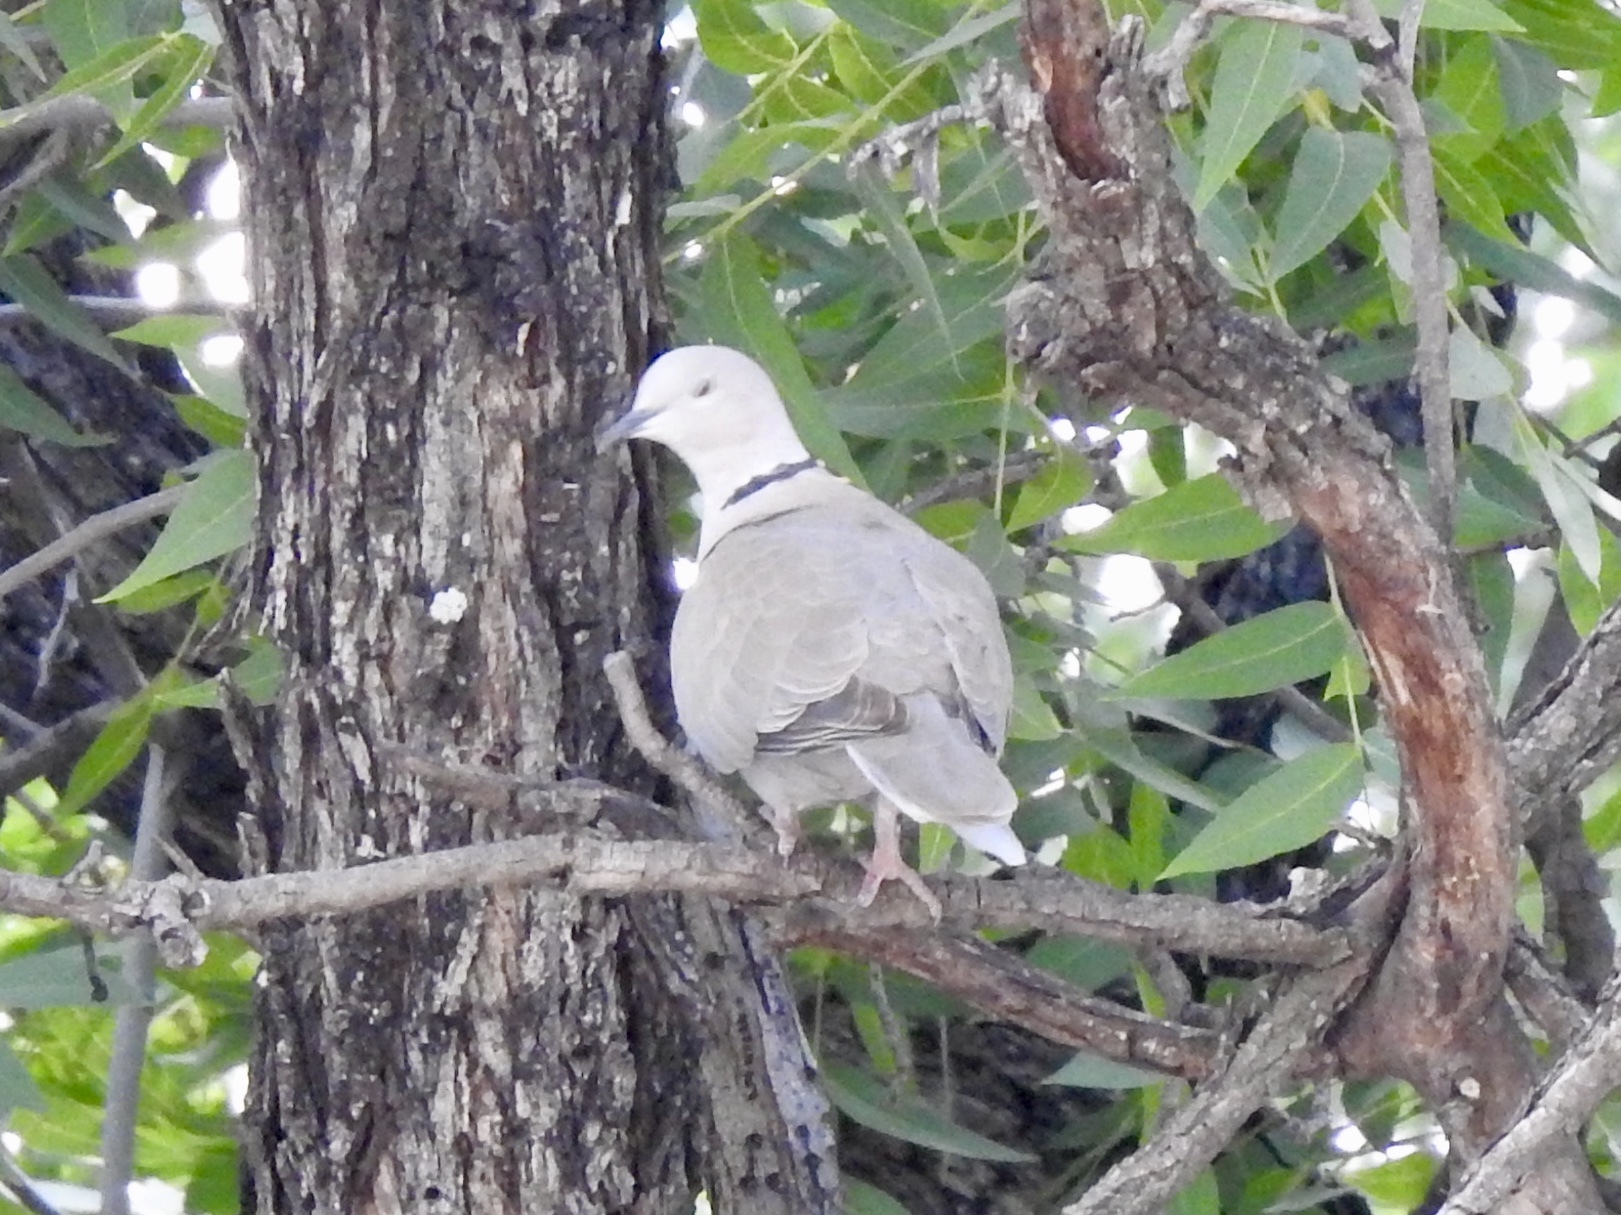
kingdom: Animalia
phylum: Chordata
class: Aves
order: Columbiformes
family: Columbidae
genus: Streptopelia
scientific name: Streptopelia decaocto
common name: Eurasian collared dove
